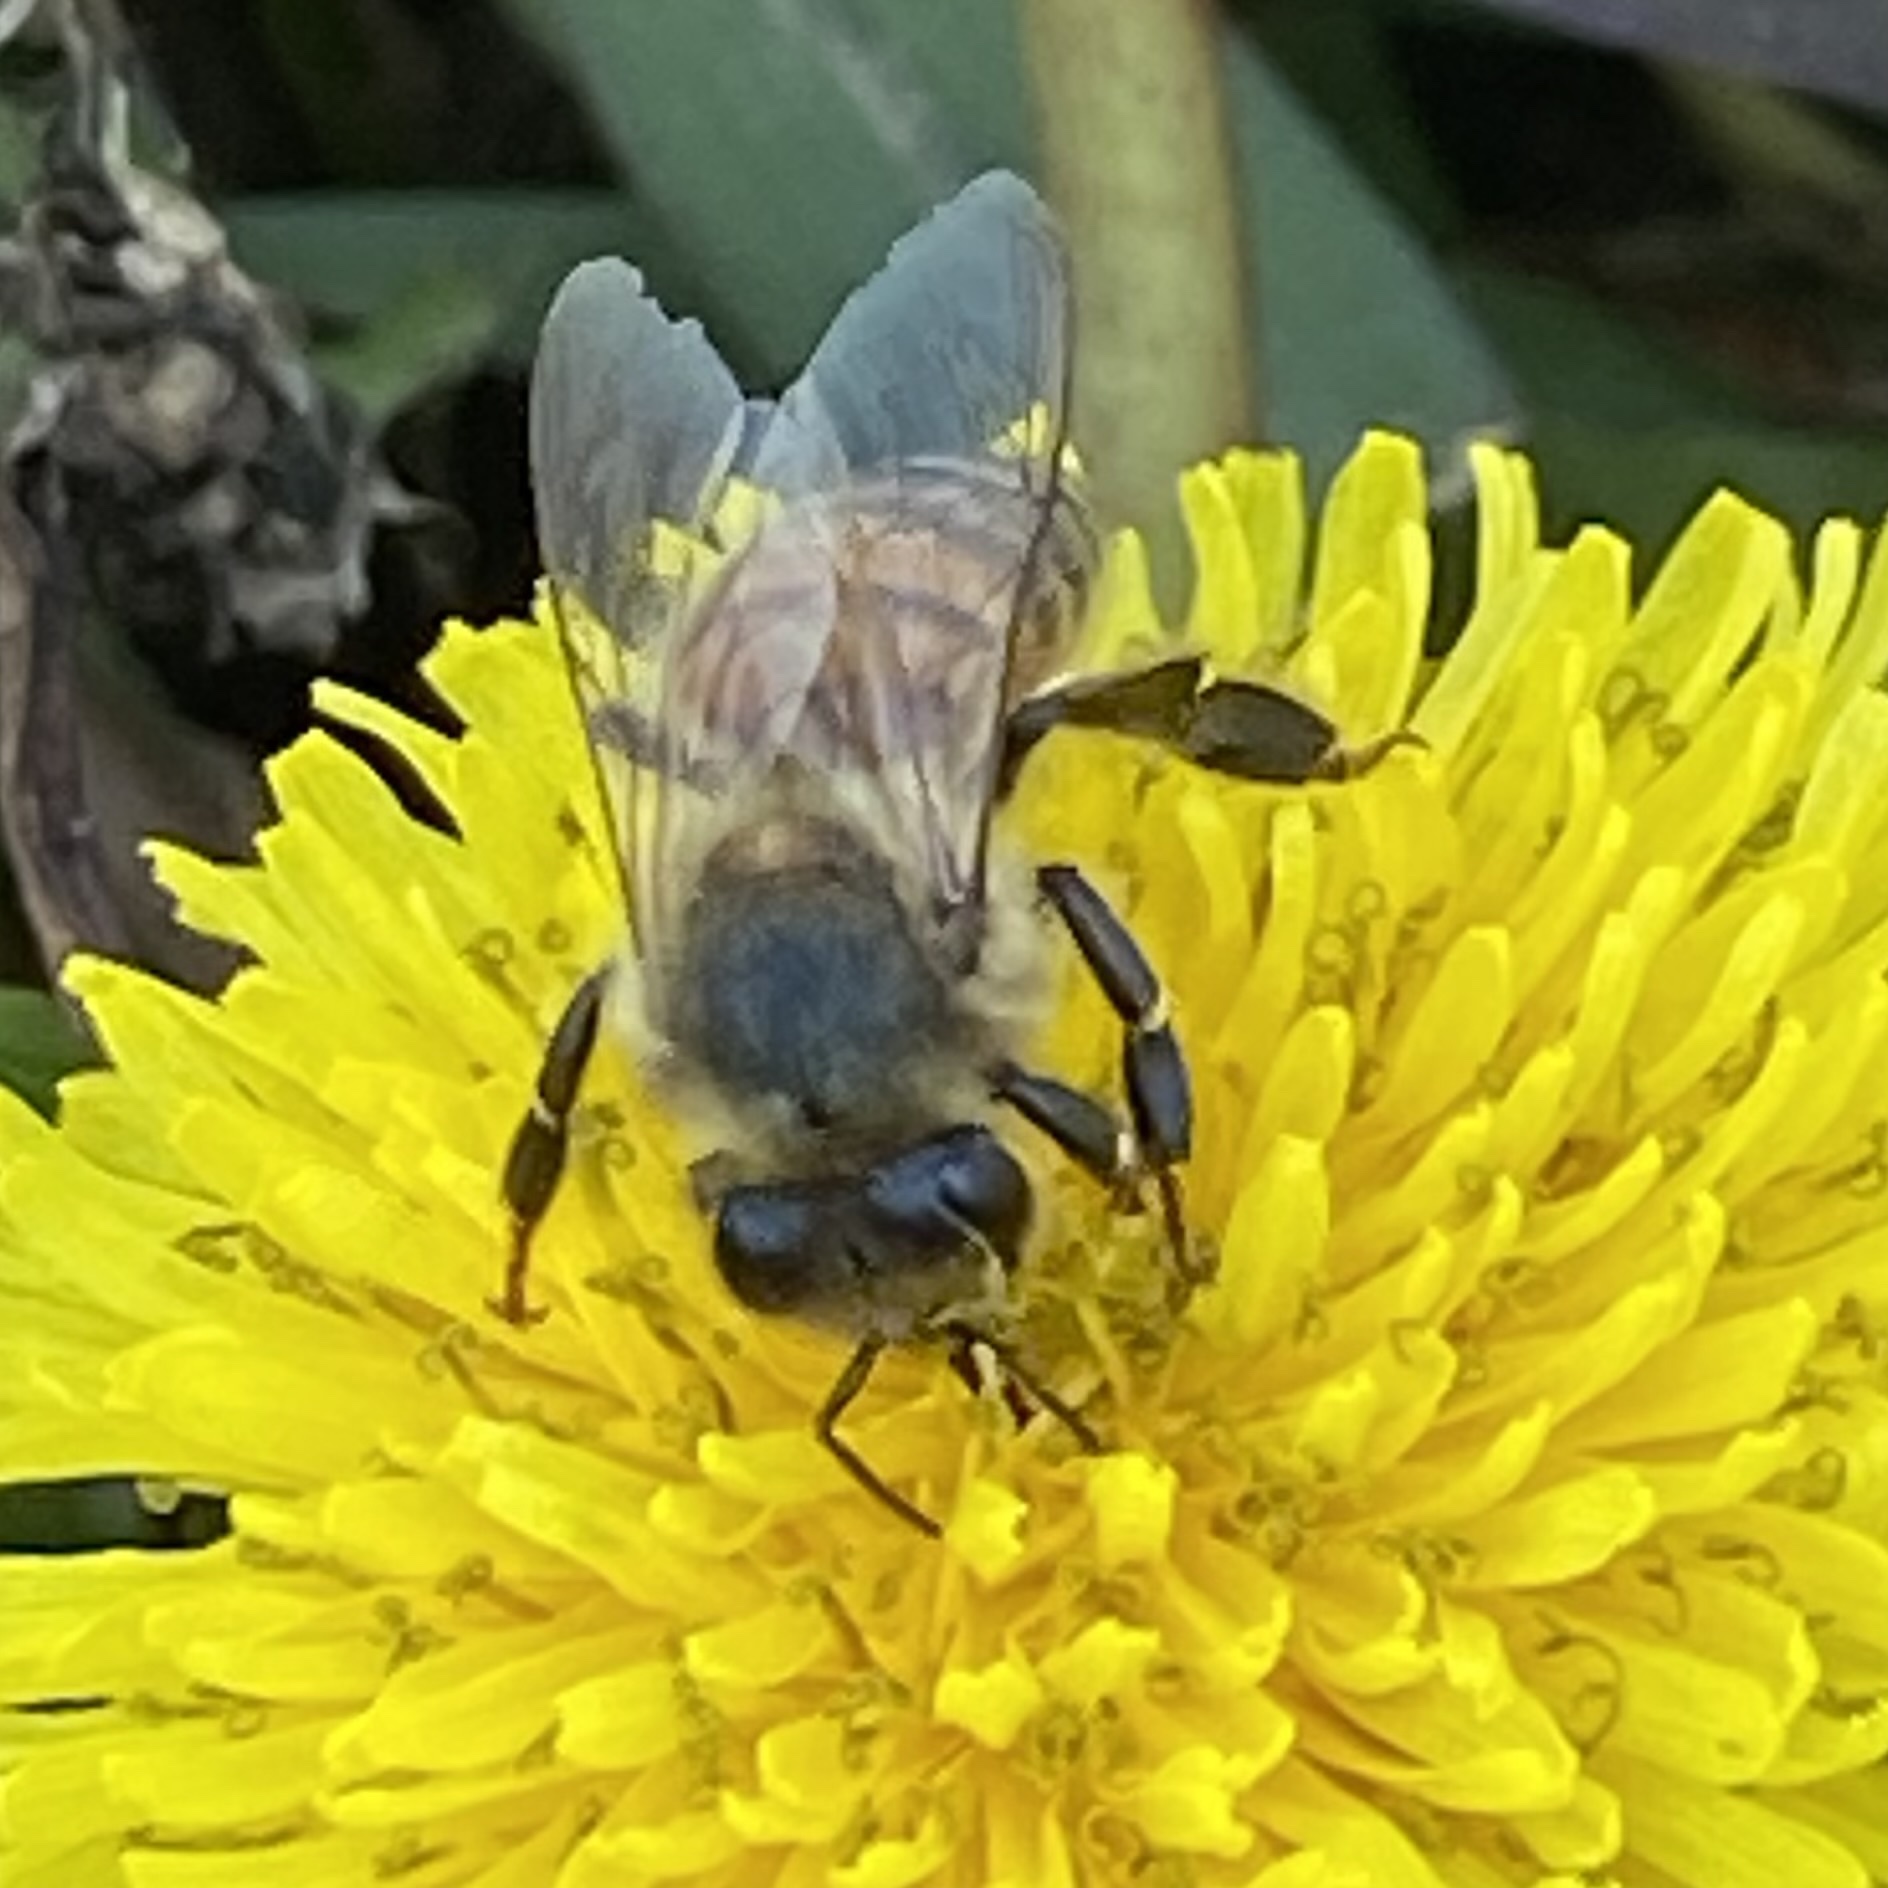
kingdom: Animalia
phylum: Arthropoda
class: Insecta
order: Hymenoptera
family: Apidae
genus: Apis
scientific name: Apis mellifera
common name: Honey bee
